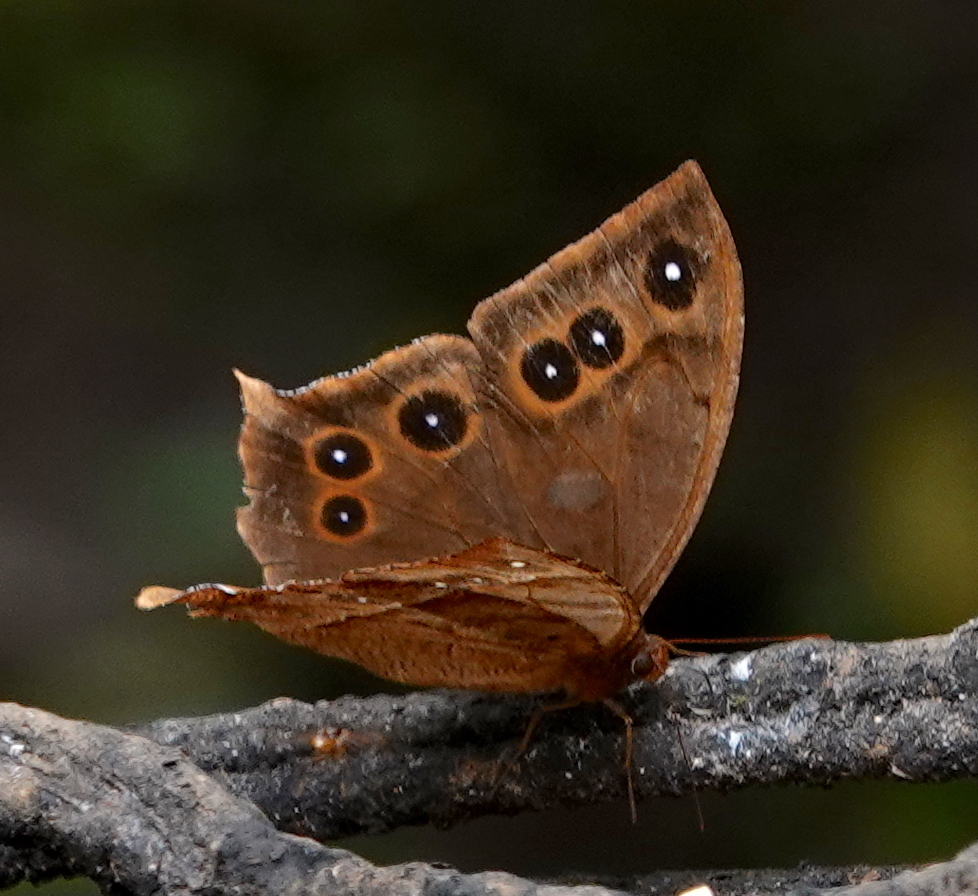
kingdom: Animalia
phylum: Arthropoda
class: Insecta
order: Lepidoptera
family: Nymphalidae
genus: Antirrhea
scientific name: Antirrhea geryon
